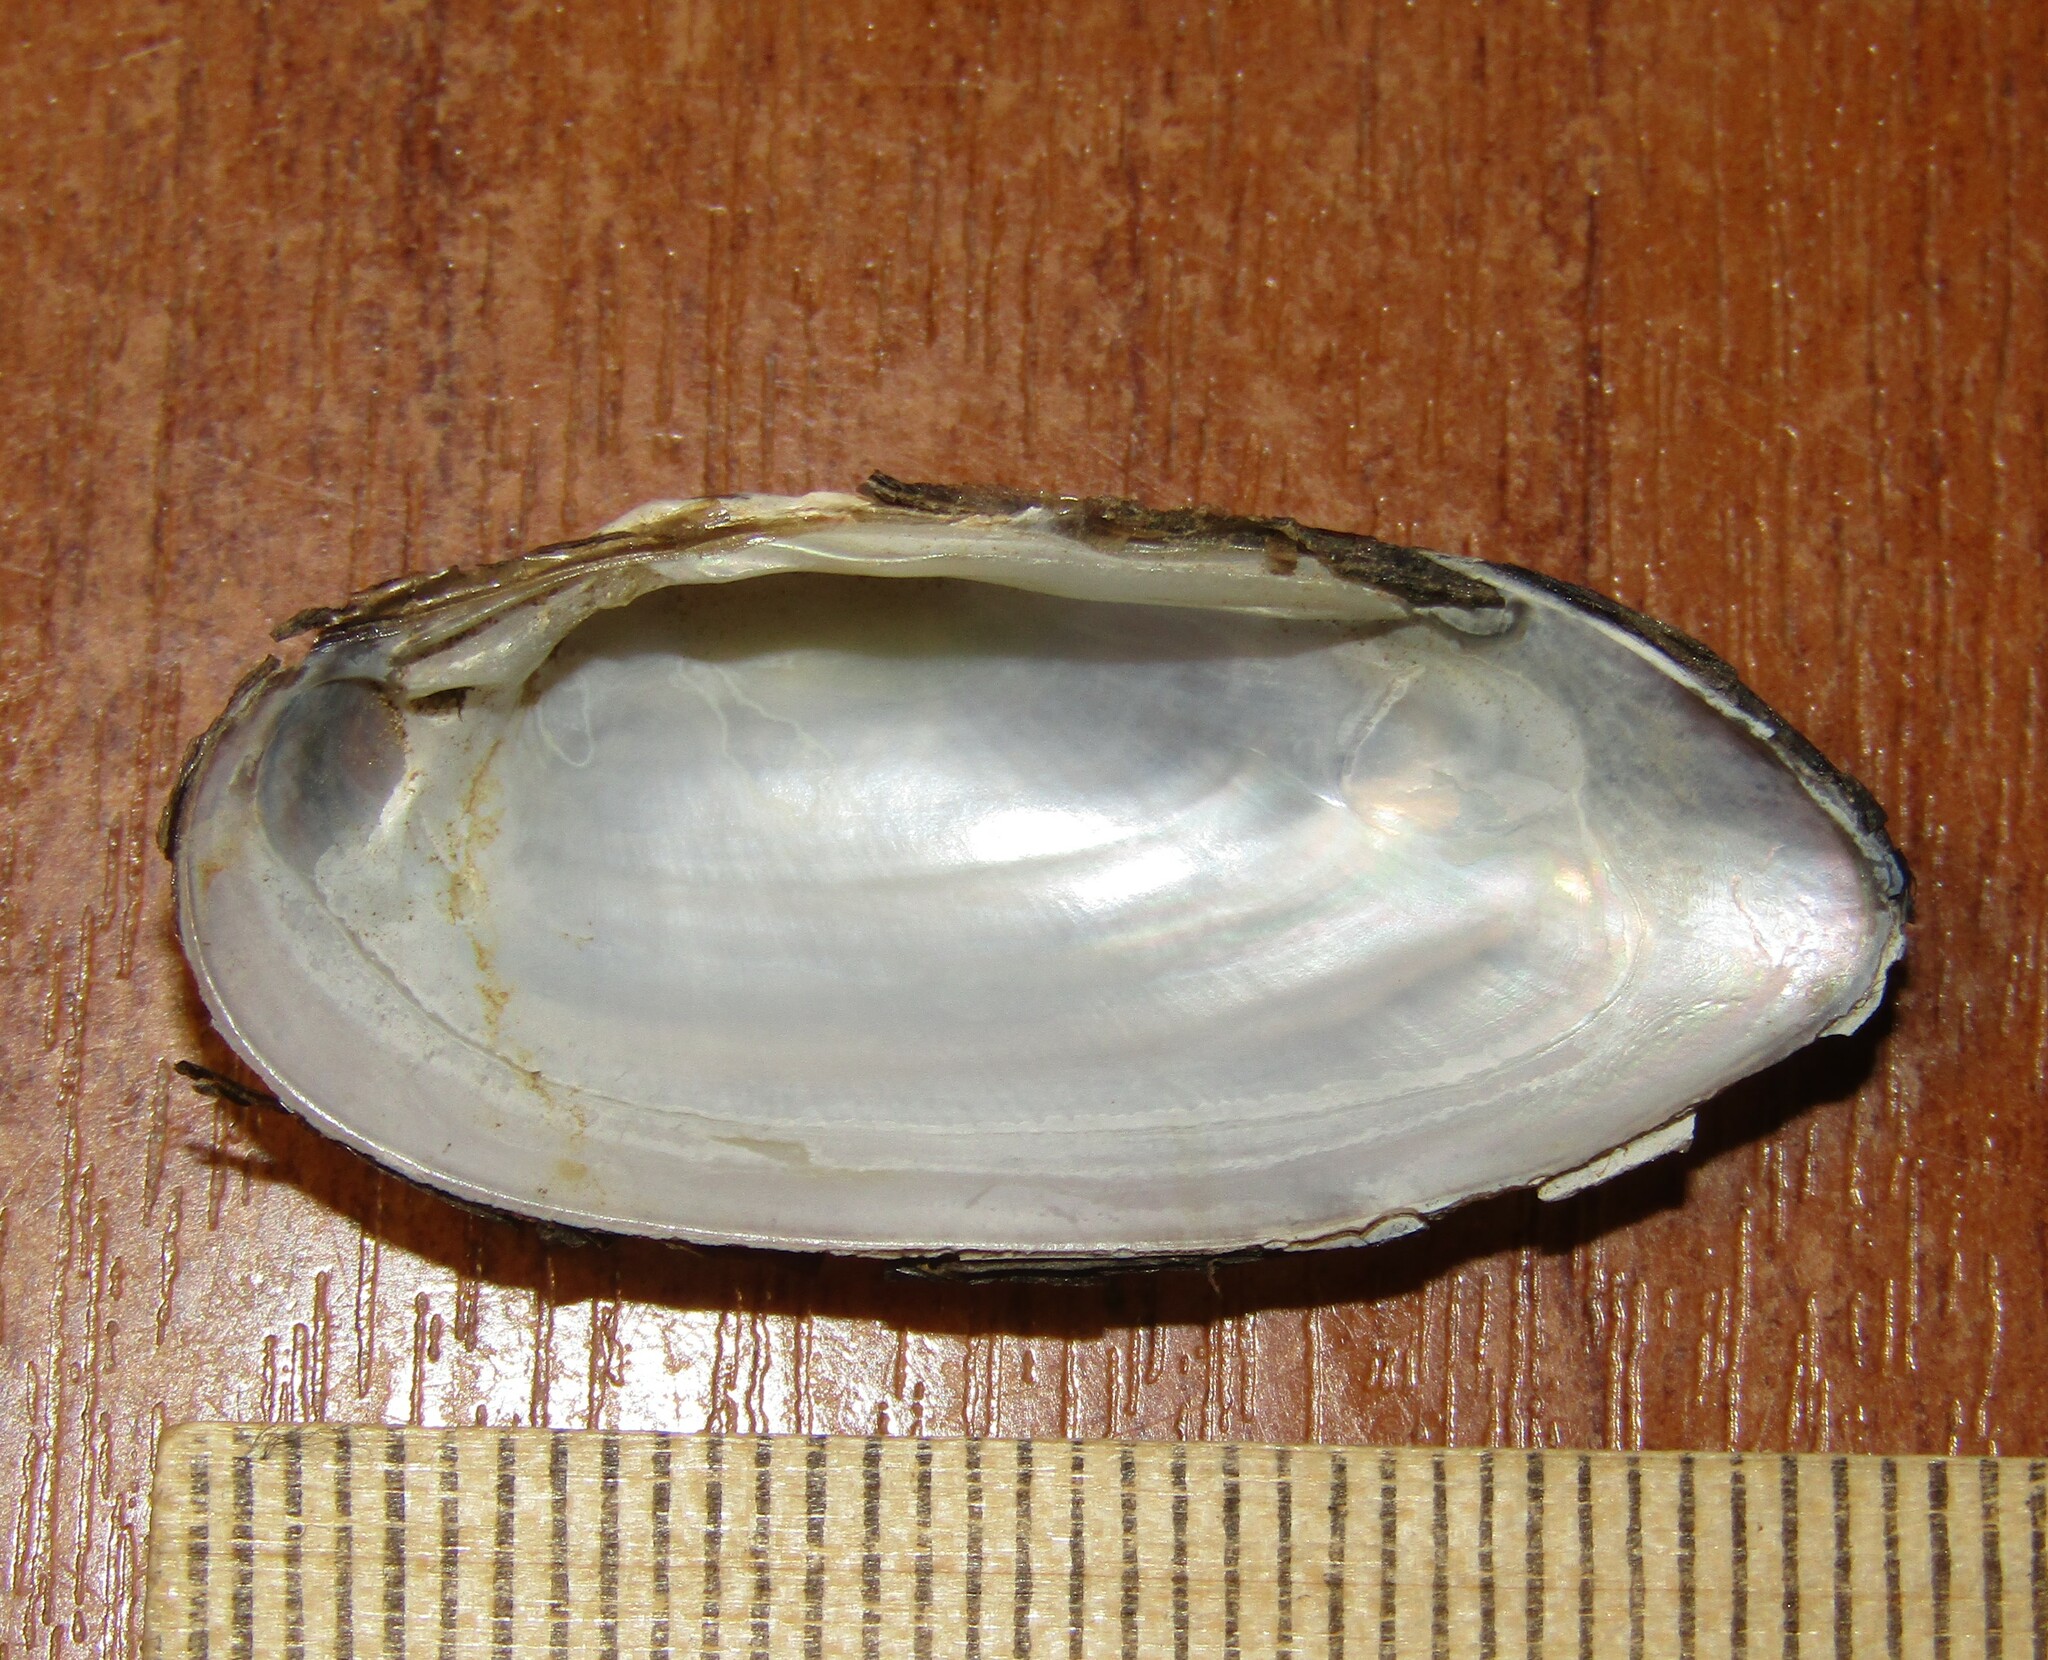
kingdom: Animalia
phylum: Mollusca
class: Bivalvia
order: Unionida
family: Unionidae
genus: Unio
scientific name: Unio pictorum
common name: Painter's mussel
